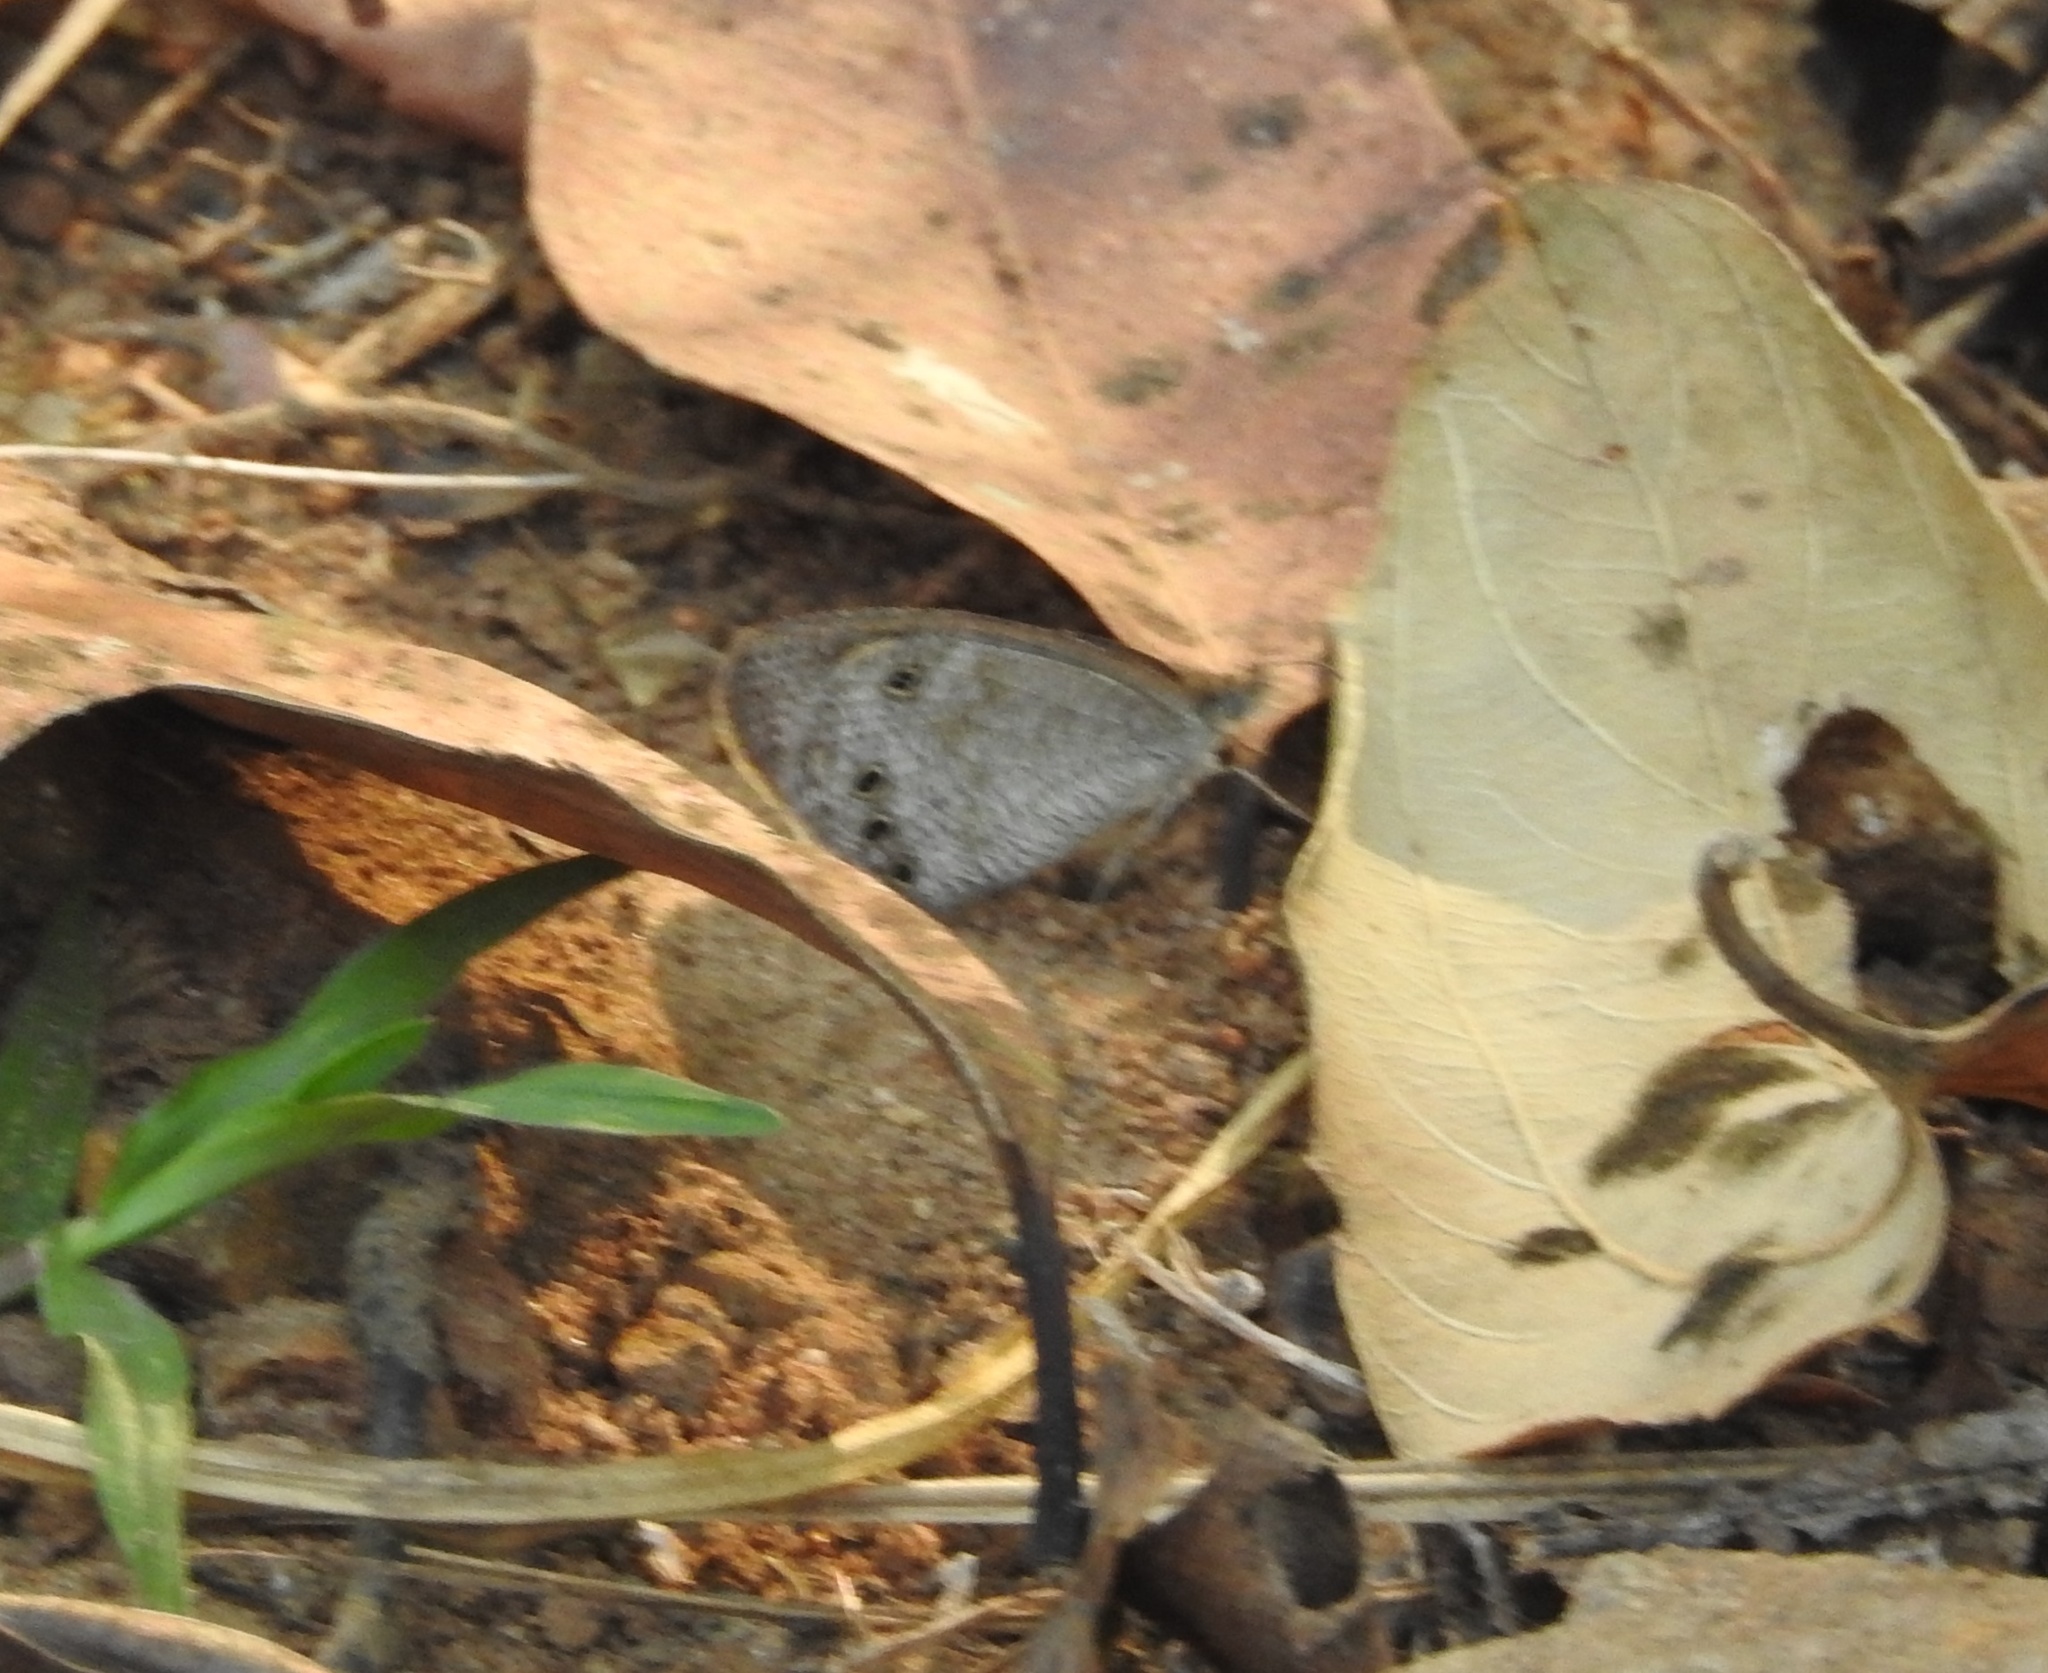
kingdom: Animalia
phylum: Arthropoda
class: Insecta
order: Lepidoptera
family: Nymphalidae
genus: Ypthima
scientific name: Ypthima baldus
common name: Common five-ring
